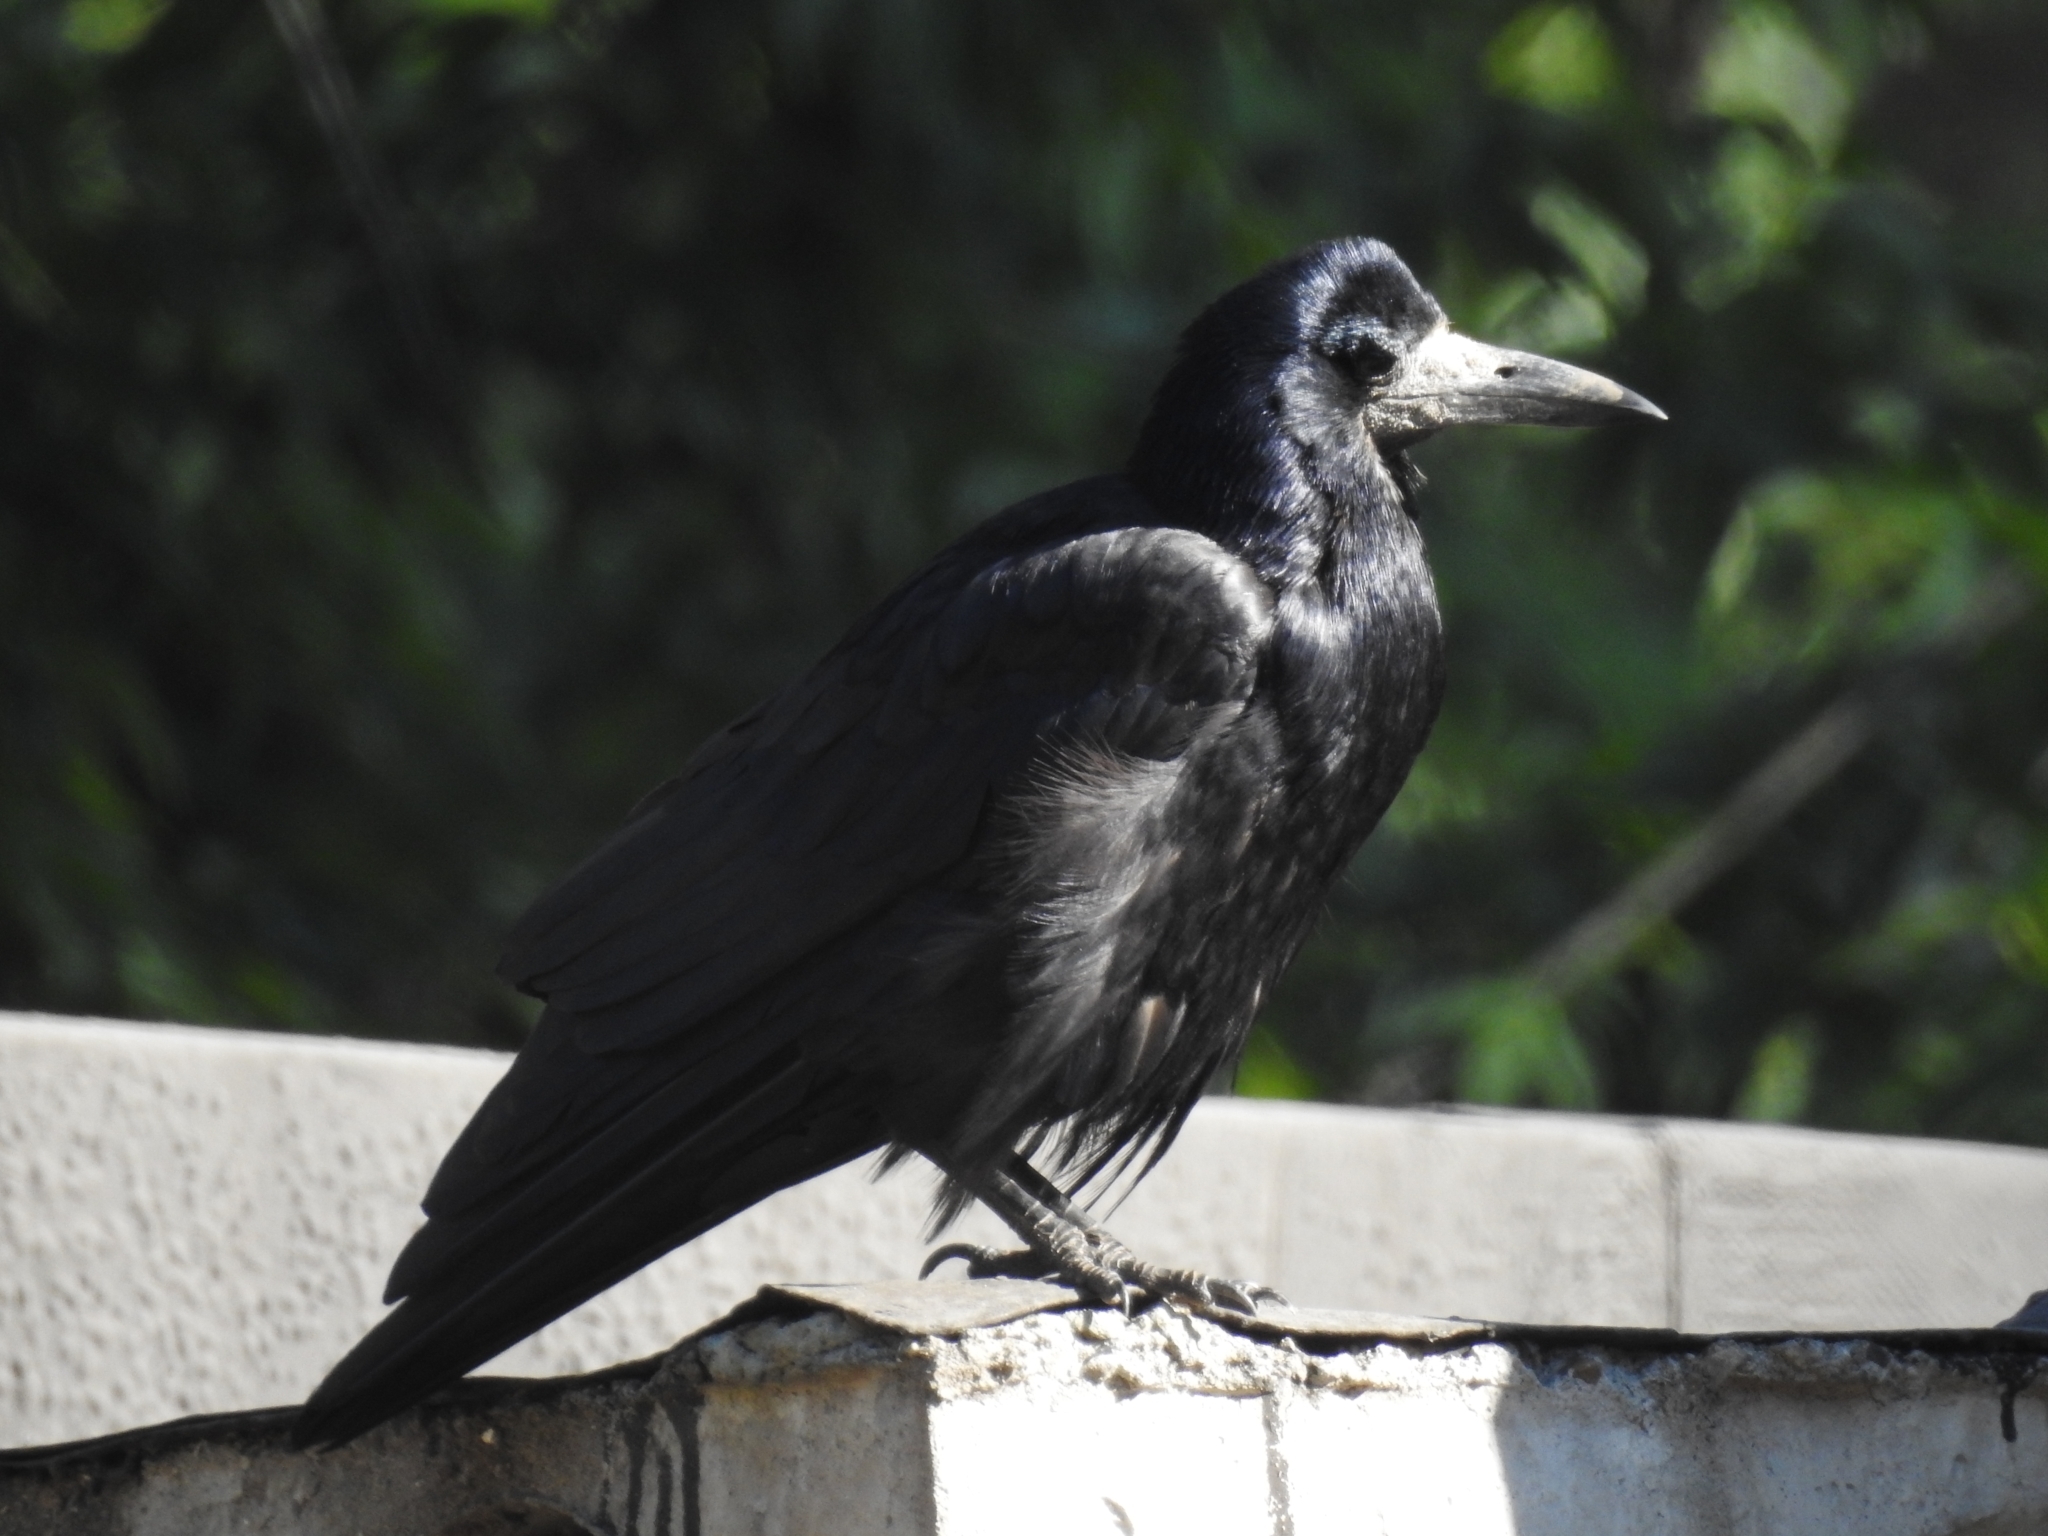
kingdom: Animalia
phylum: Chordata
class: Aves
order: Passeriformes
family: Corvidae
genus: Corvus
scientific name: Corvus frugilegus
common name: Rook
